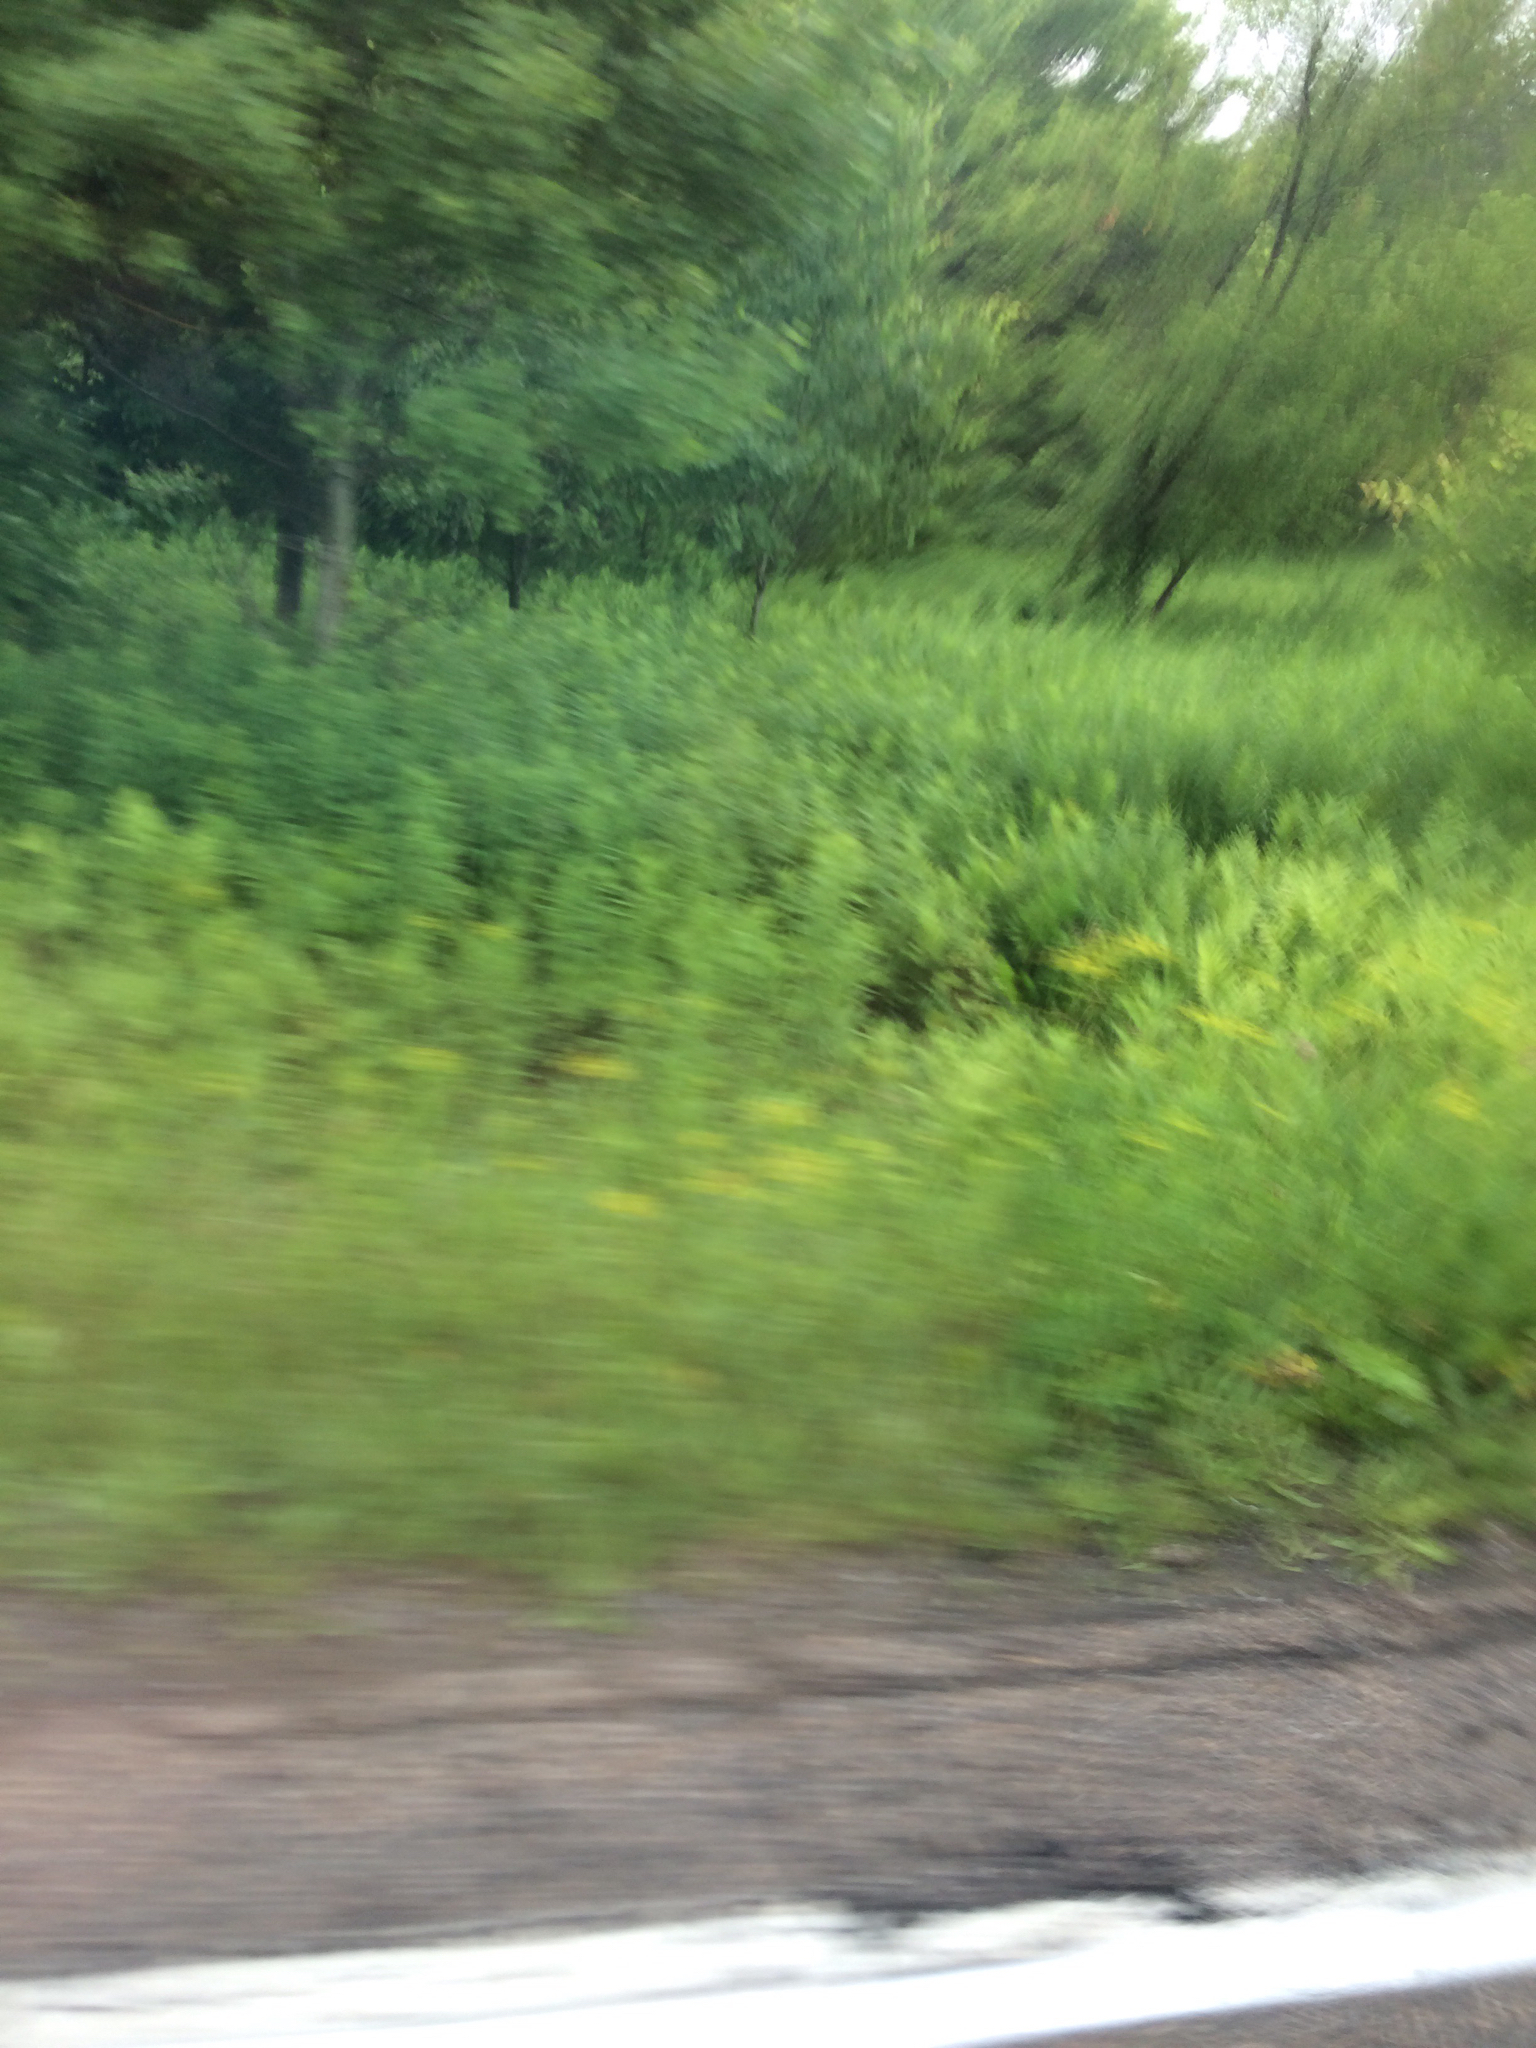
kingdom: Plantae
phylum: Tracheophyta
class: Magnoliopsida
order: Apiales
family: Apiaceae
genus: Pastinaca
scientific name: Pastinaca sativa
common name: Wild parsnip
